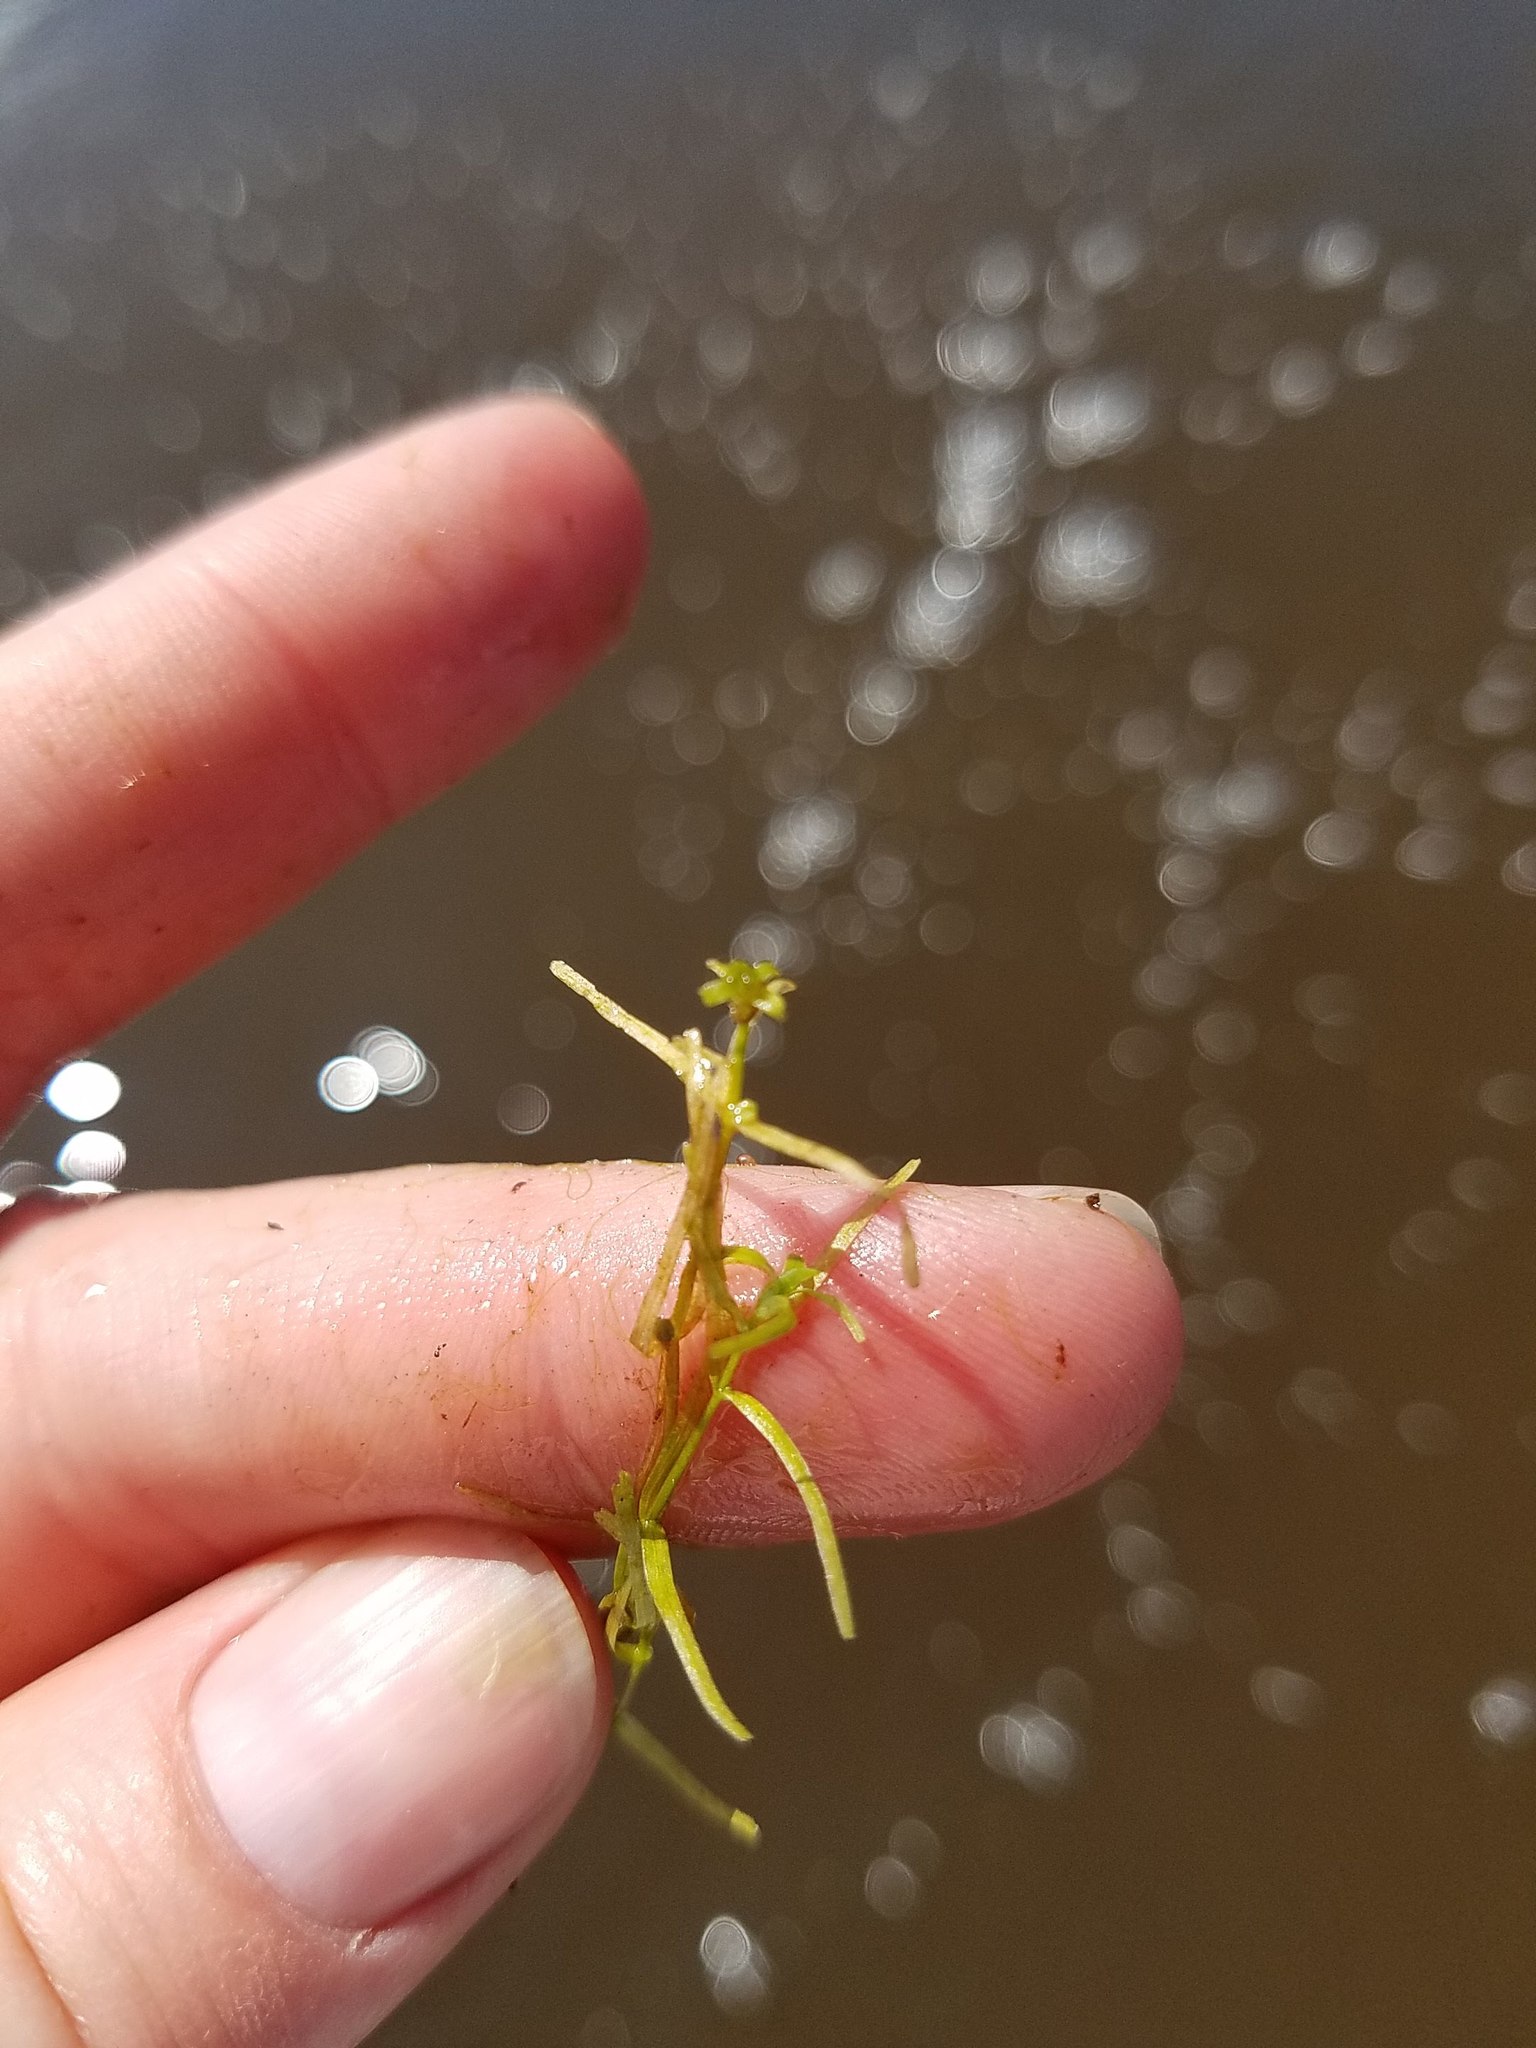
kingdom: Plantae
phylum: Tracheophyta
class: Magnoliopsida
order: Lamiales
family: Plantaginaceae
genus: Callitriche
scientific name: Callitriche
